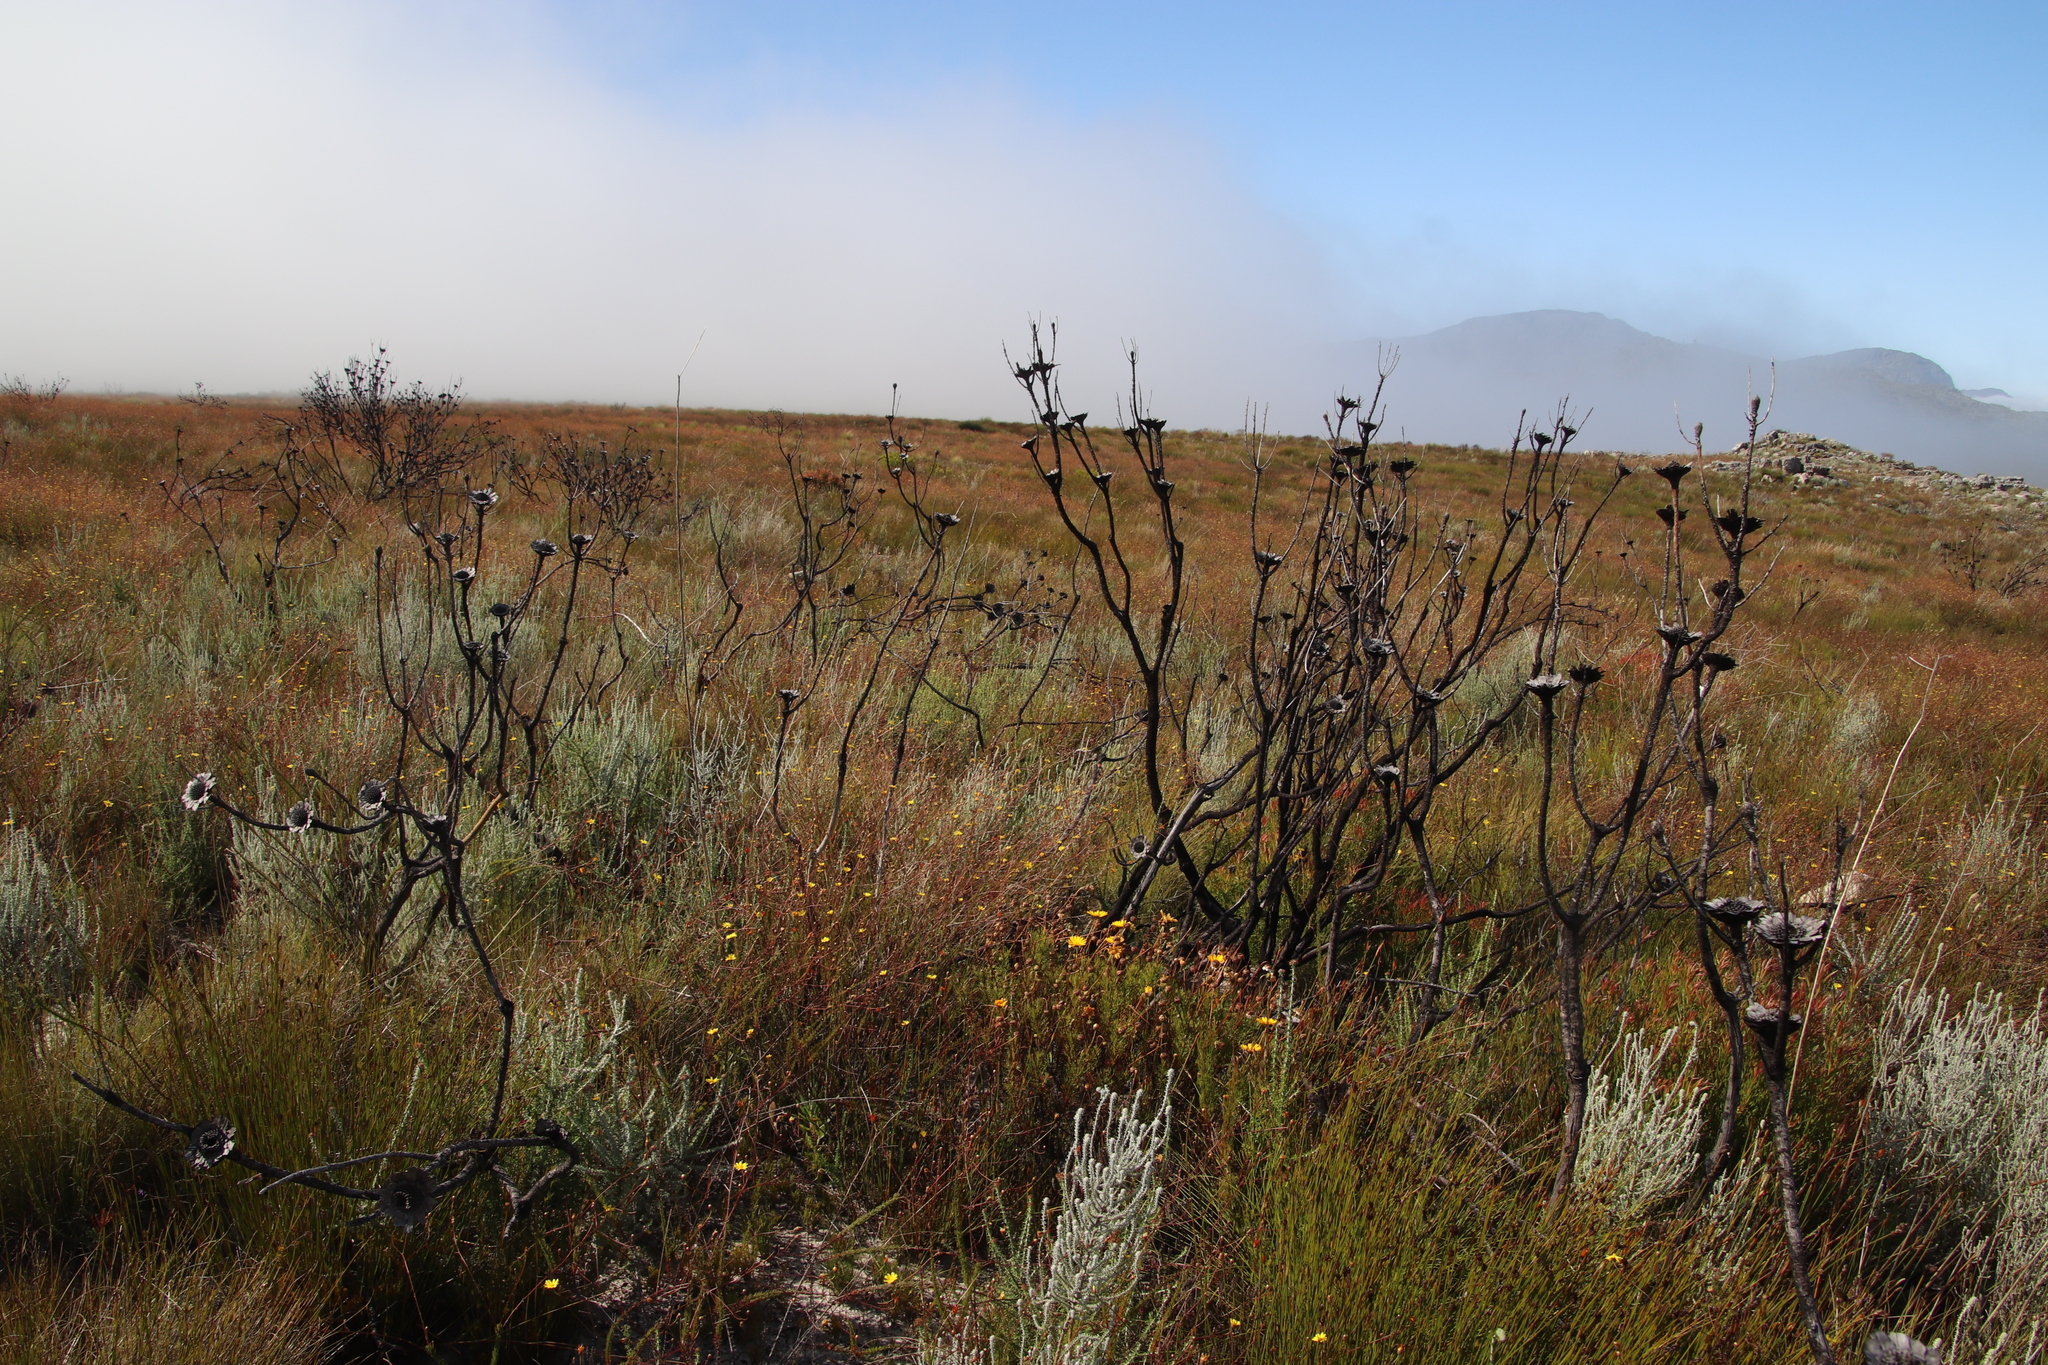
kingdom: Plantae
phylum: Tracheophyta
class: Magnoliopsida
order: Proteales
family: Proteaceae
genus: Protea
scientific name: Protea repens
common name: Sugarbush
